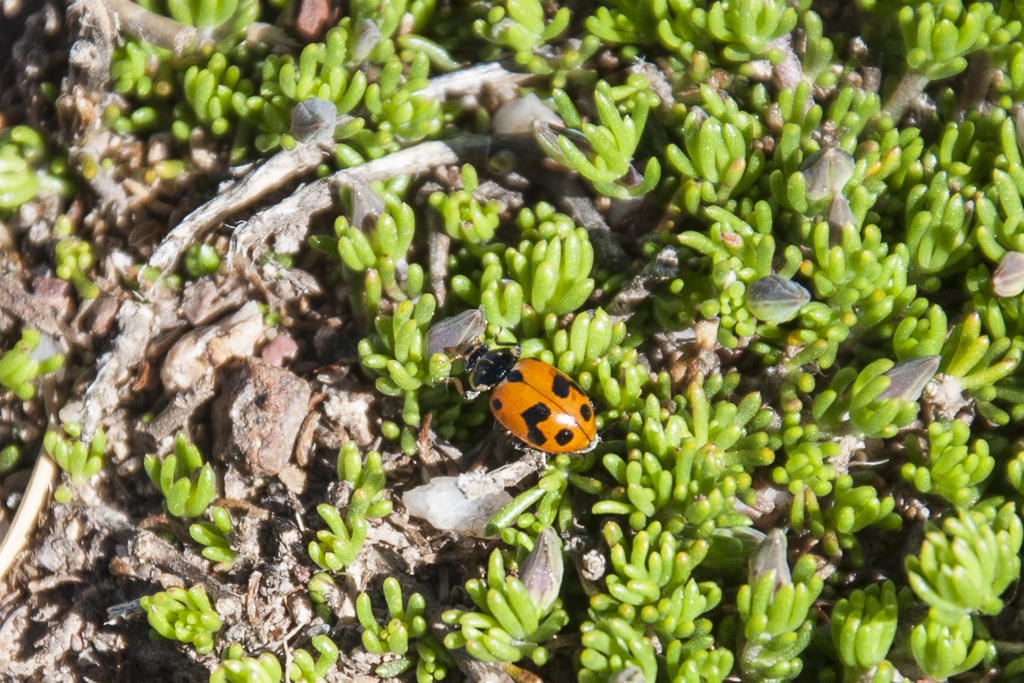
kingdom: Animalia
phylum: Arthropoda
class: Insecta
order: Coleoptera
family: Coccinellidae
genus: Hippodamia
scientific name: Hippodamia variegata
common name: Ladybird beetle
